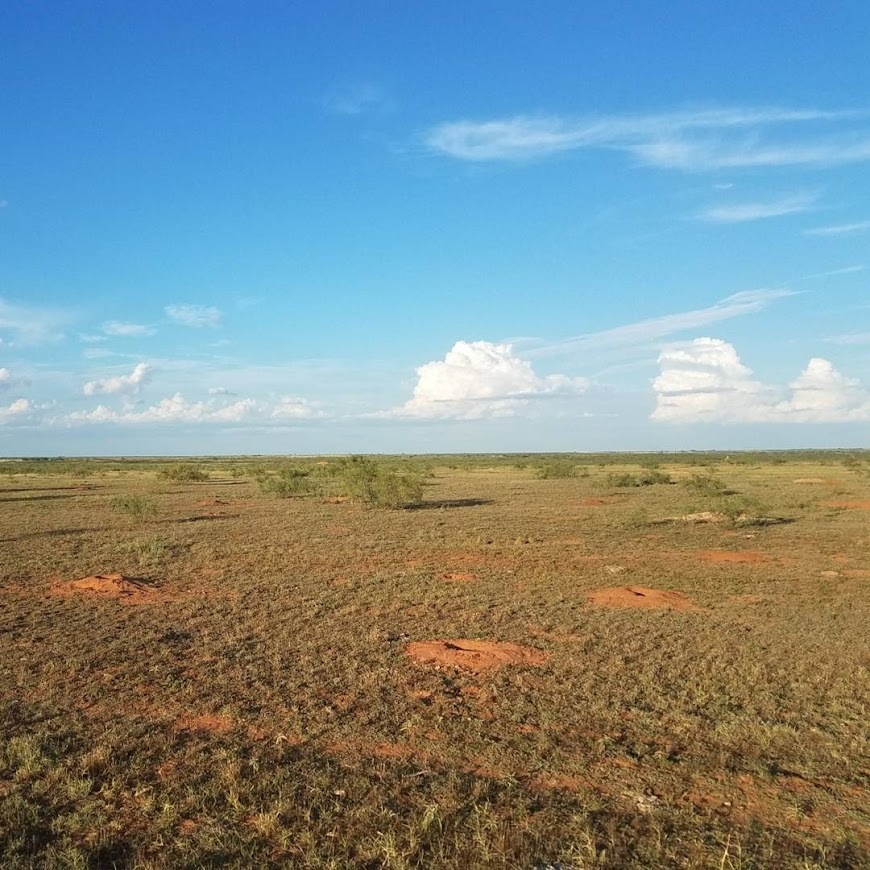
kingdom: Animalia
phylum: Chordata
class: Aves
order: Strigiformes
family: Strigidae
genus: Athene
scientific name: Athene cunicularia
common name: Burrowing owl
